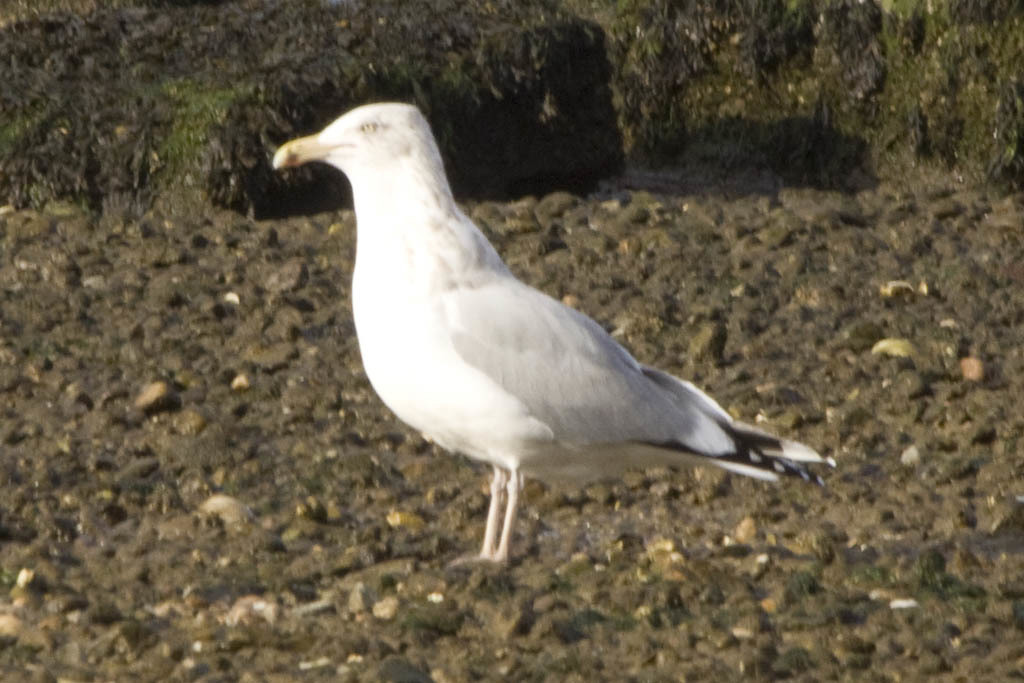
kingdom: Animalia
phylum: Chordata
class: Aves
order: Charadriiformes
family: Laridae
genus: Larus
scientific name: Larus argentatus
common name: Herring gull
